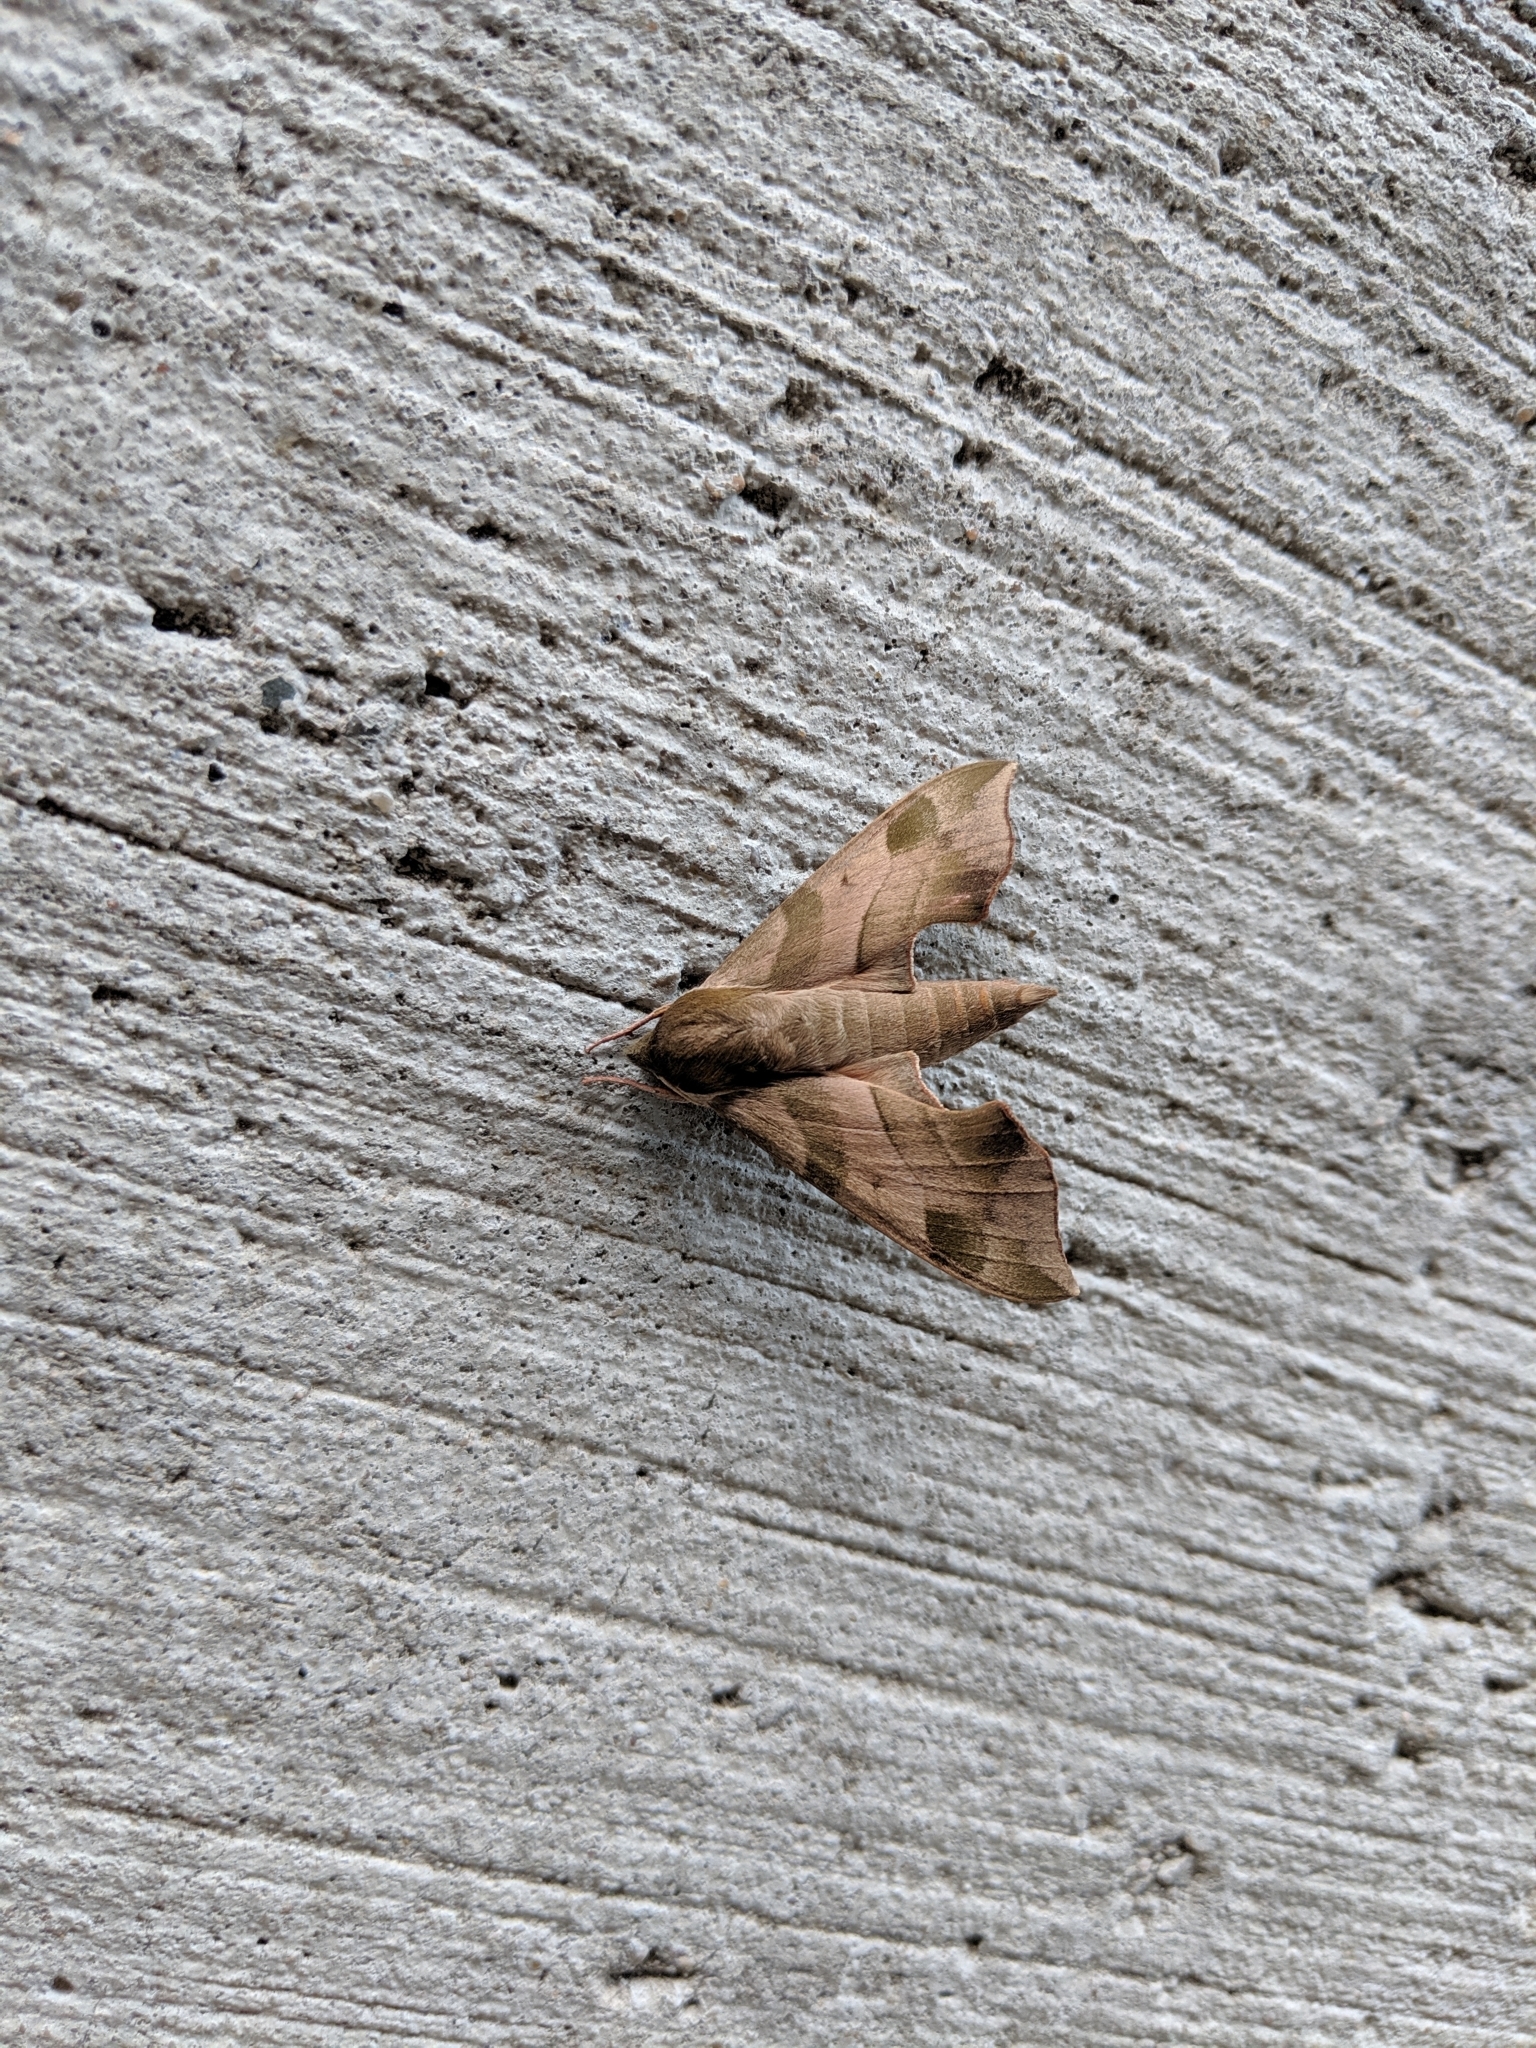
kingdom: Animalia
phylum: Arthropoda
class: Insecta
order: Lepidoptera
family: Sphingidae
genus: Darapsa
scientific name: Darapsa myron
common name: Hog sphinx
